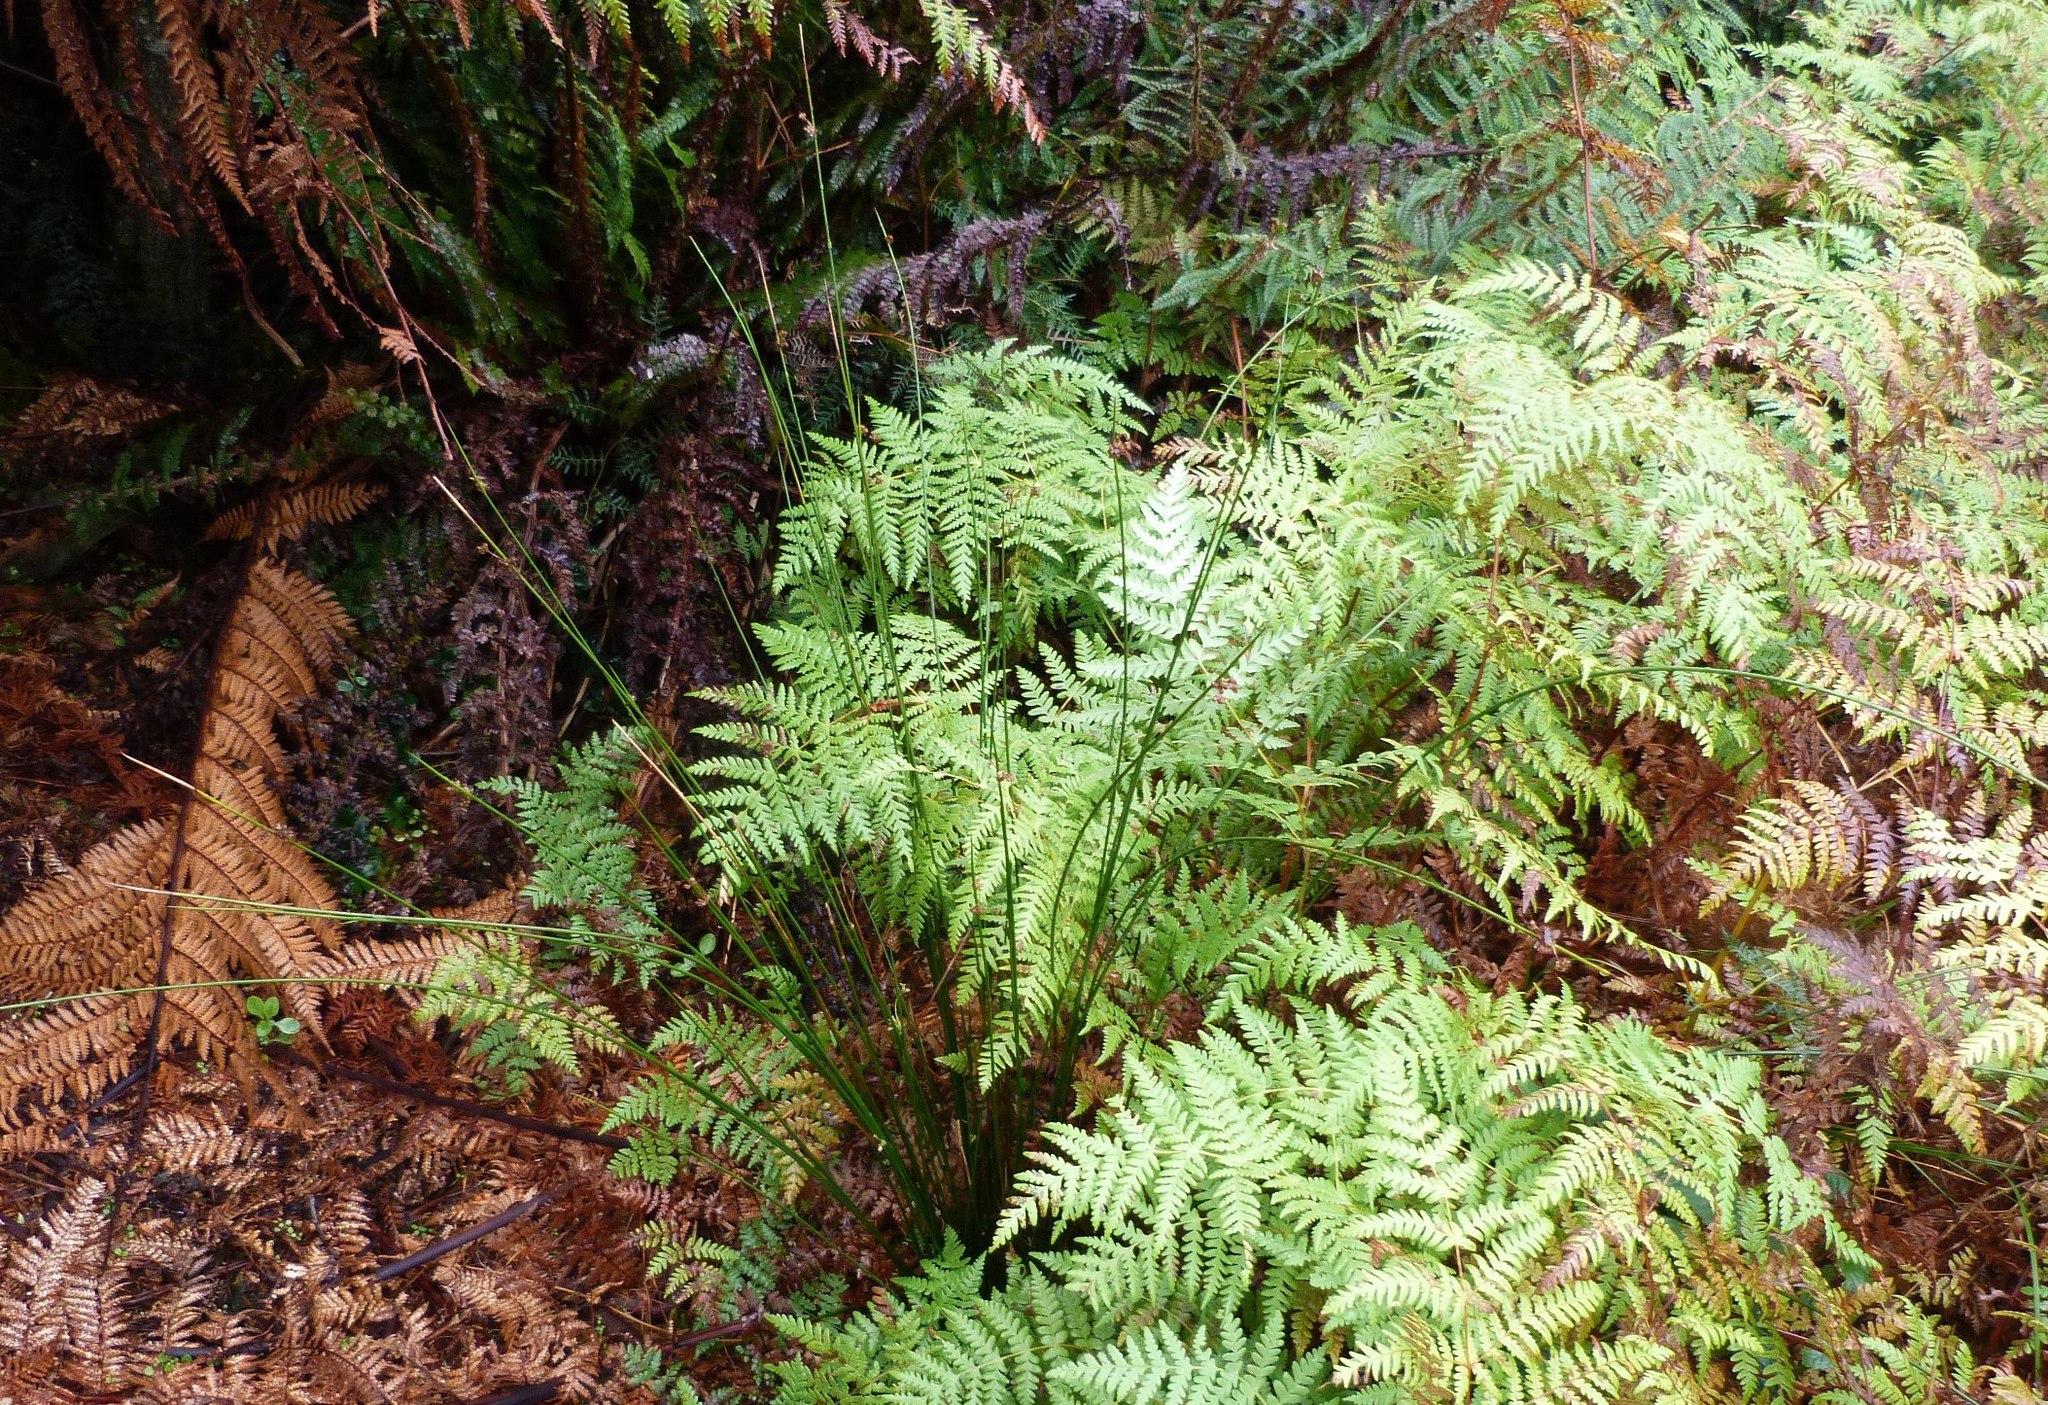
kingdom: Plantae
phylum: Tracheophyta
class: Liliopsida
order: Poales
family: Juncaceae
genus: Juncus
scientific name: Juncus distegus
